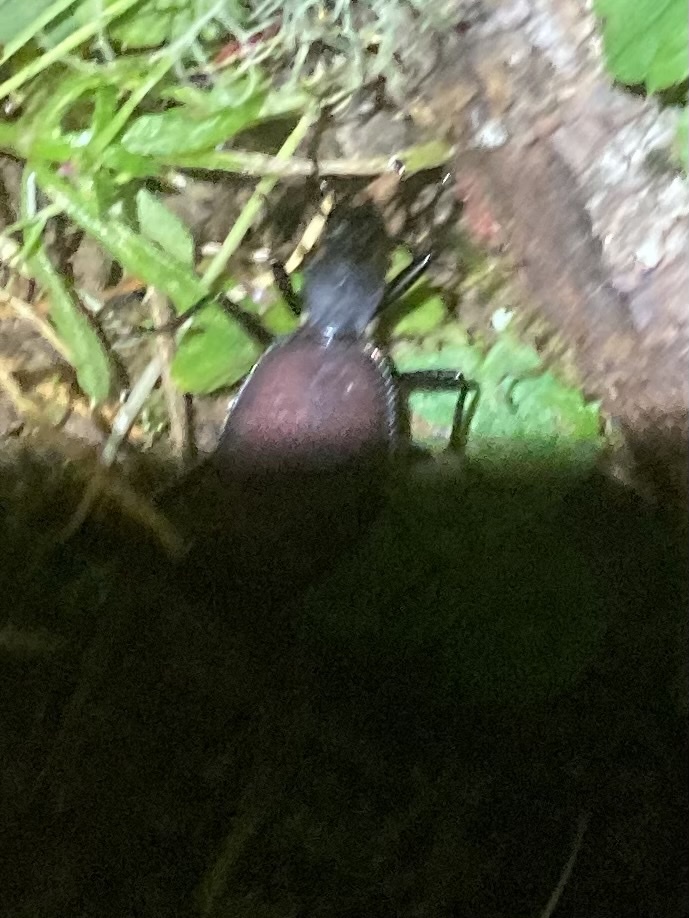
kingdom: Animalia
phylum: Arthropoda
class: Insecta
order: Coleoptera
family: Carabidae
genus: Scaphinotus
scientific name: Scaphinotus angusticollis
